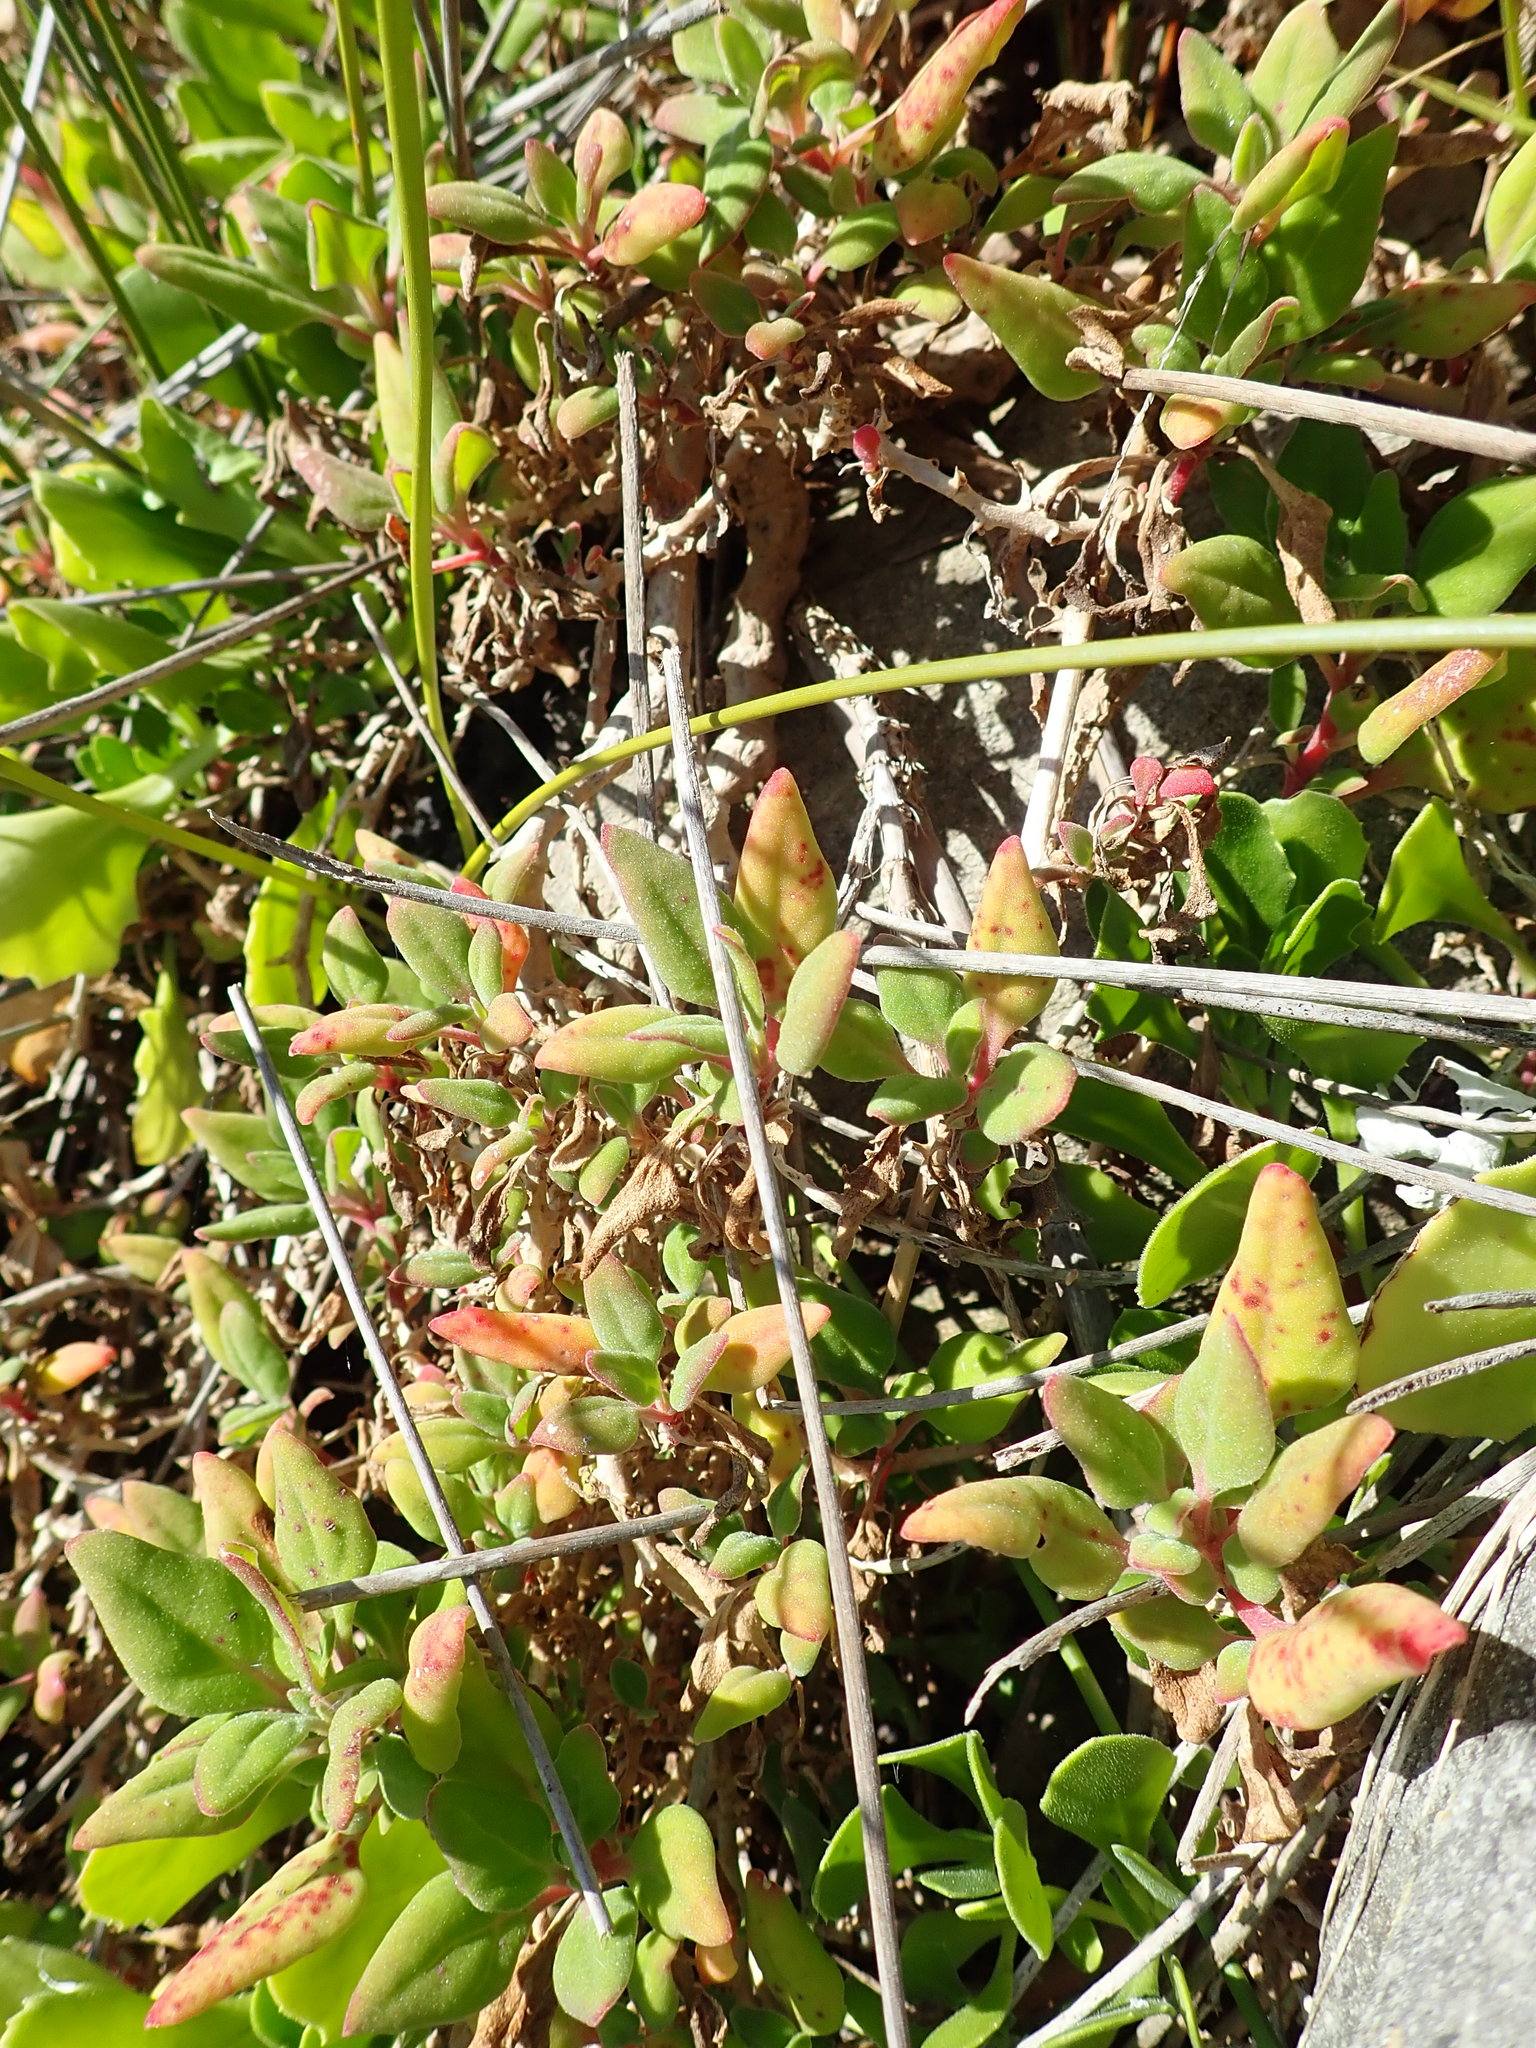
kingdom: Plantae
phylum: Tracheophyta
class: Magnoliopsida
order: Caryophyllales
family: Aizoaceae
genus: Tetragonia
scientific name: Tetragonia implexicoma
